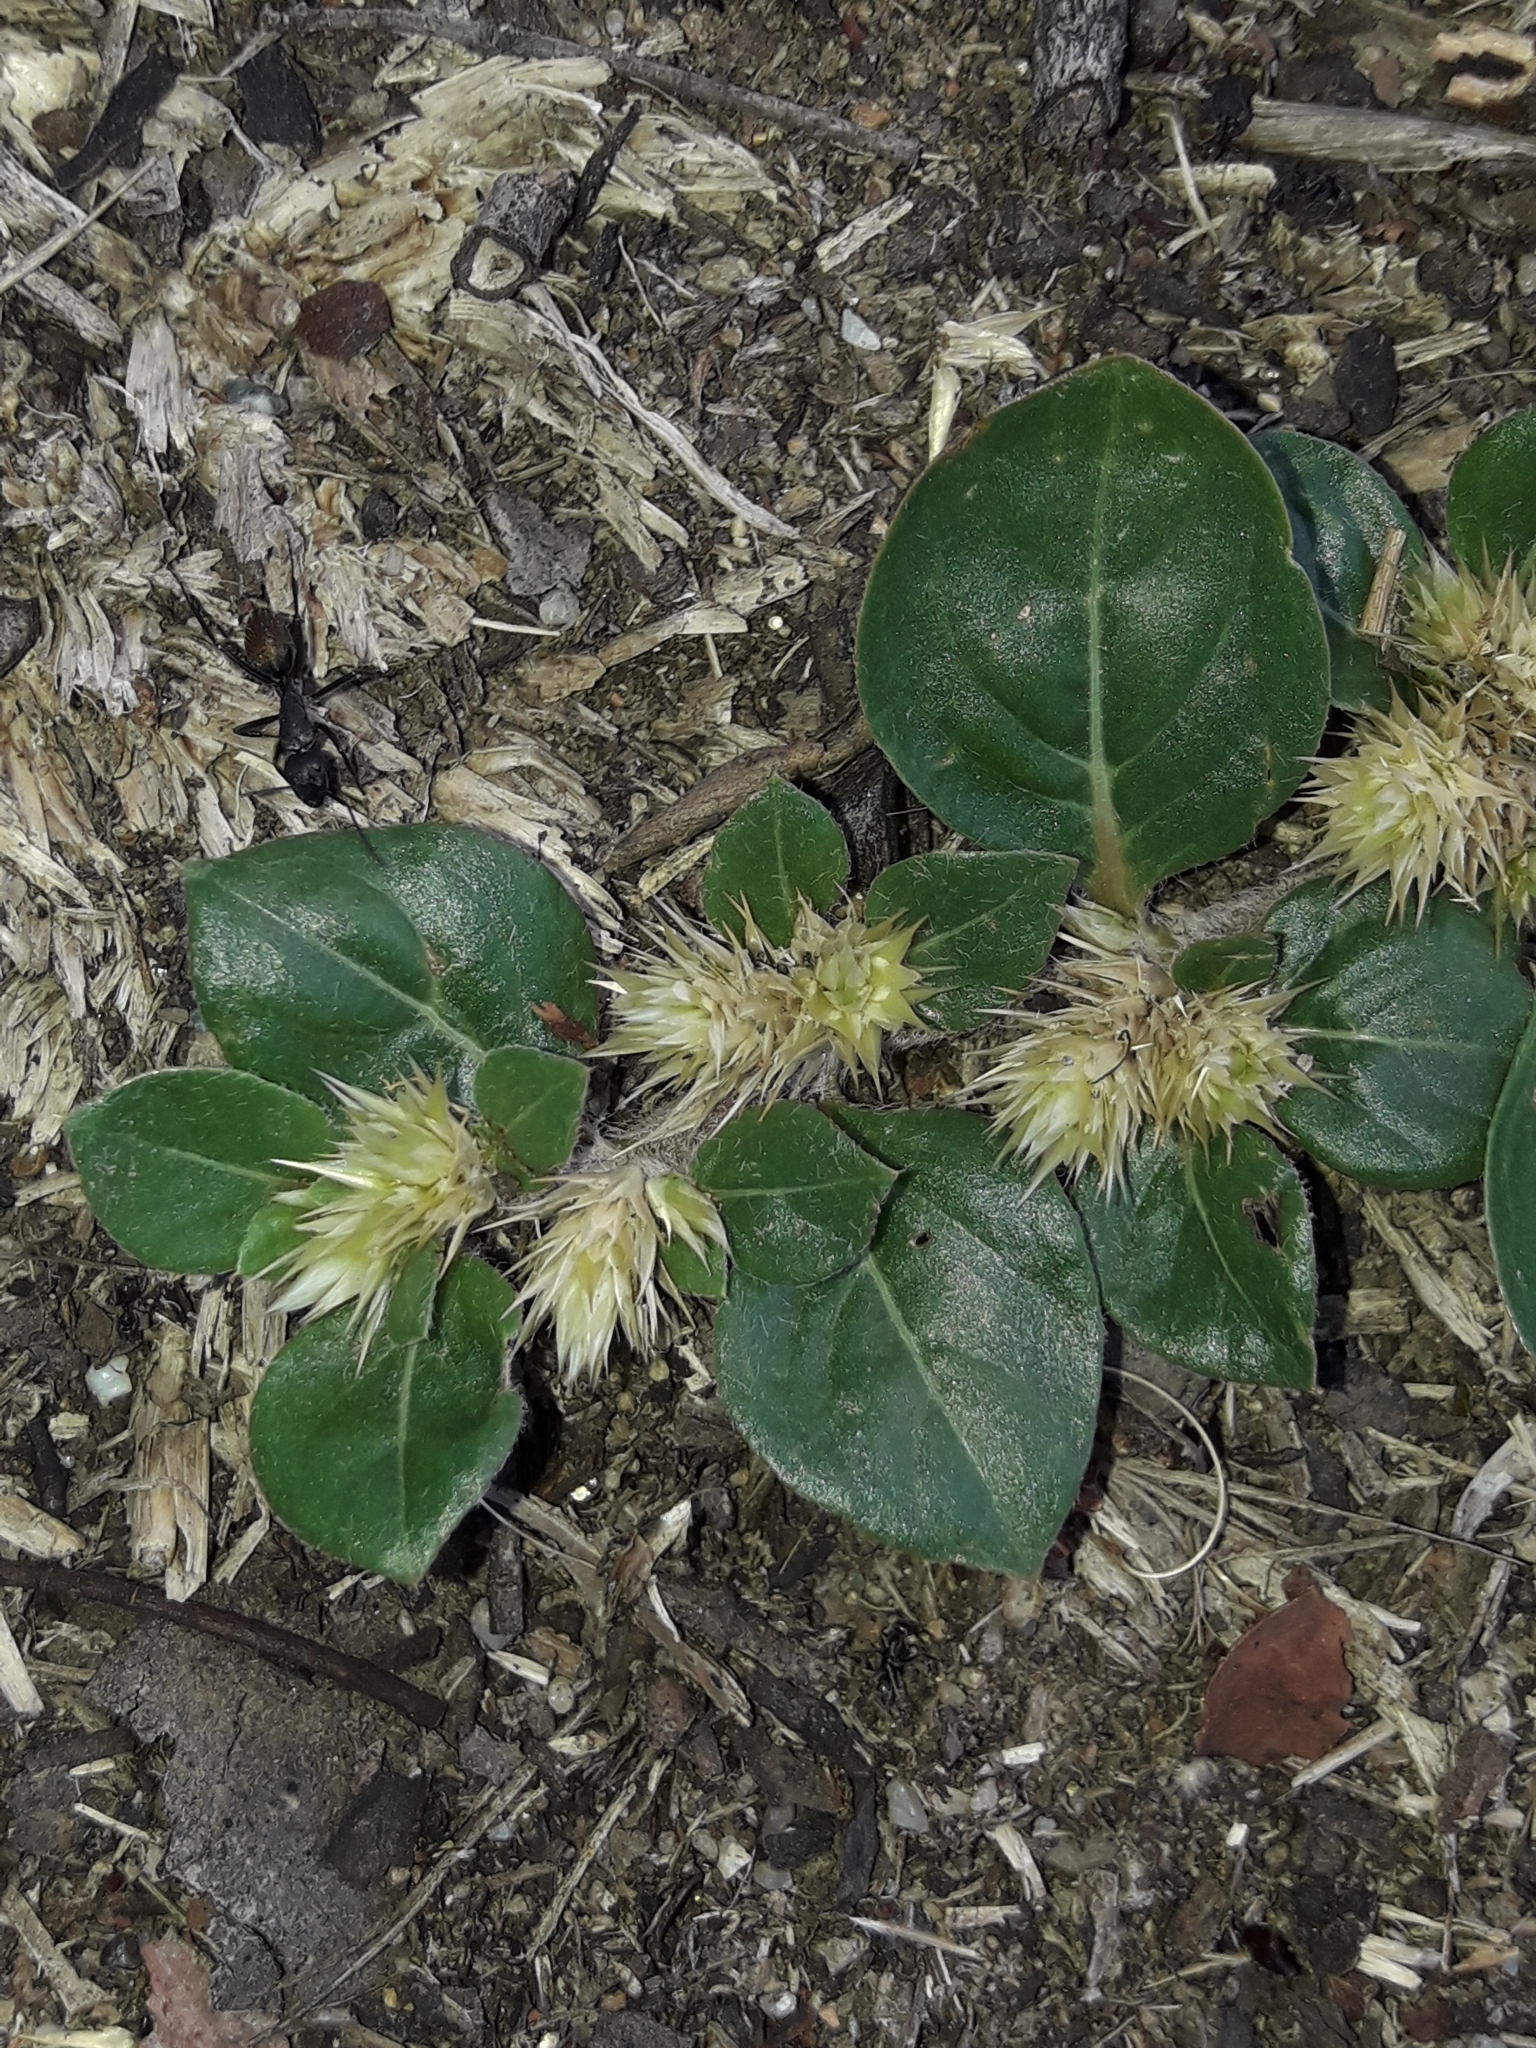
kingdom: Plantae
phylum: Tracheophyta
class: Magnoliopsida
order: Caryophyllales
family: Amaranthaceae
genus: Alternanthera
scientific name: Alternanthera pungens
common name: Khakiweed
